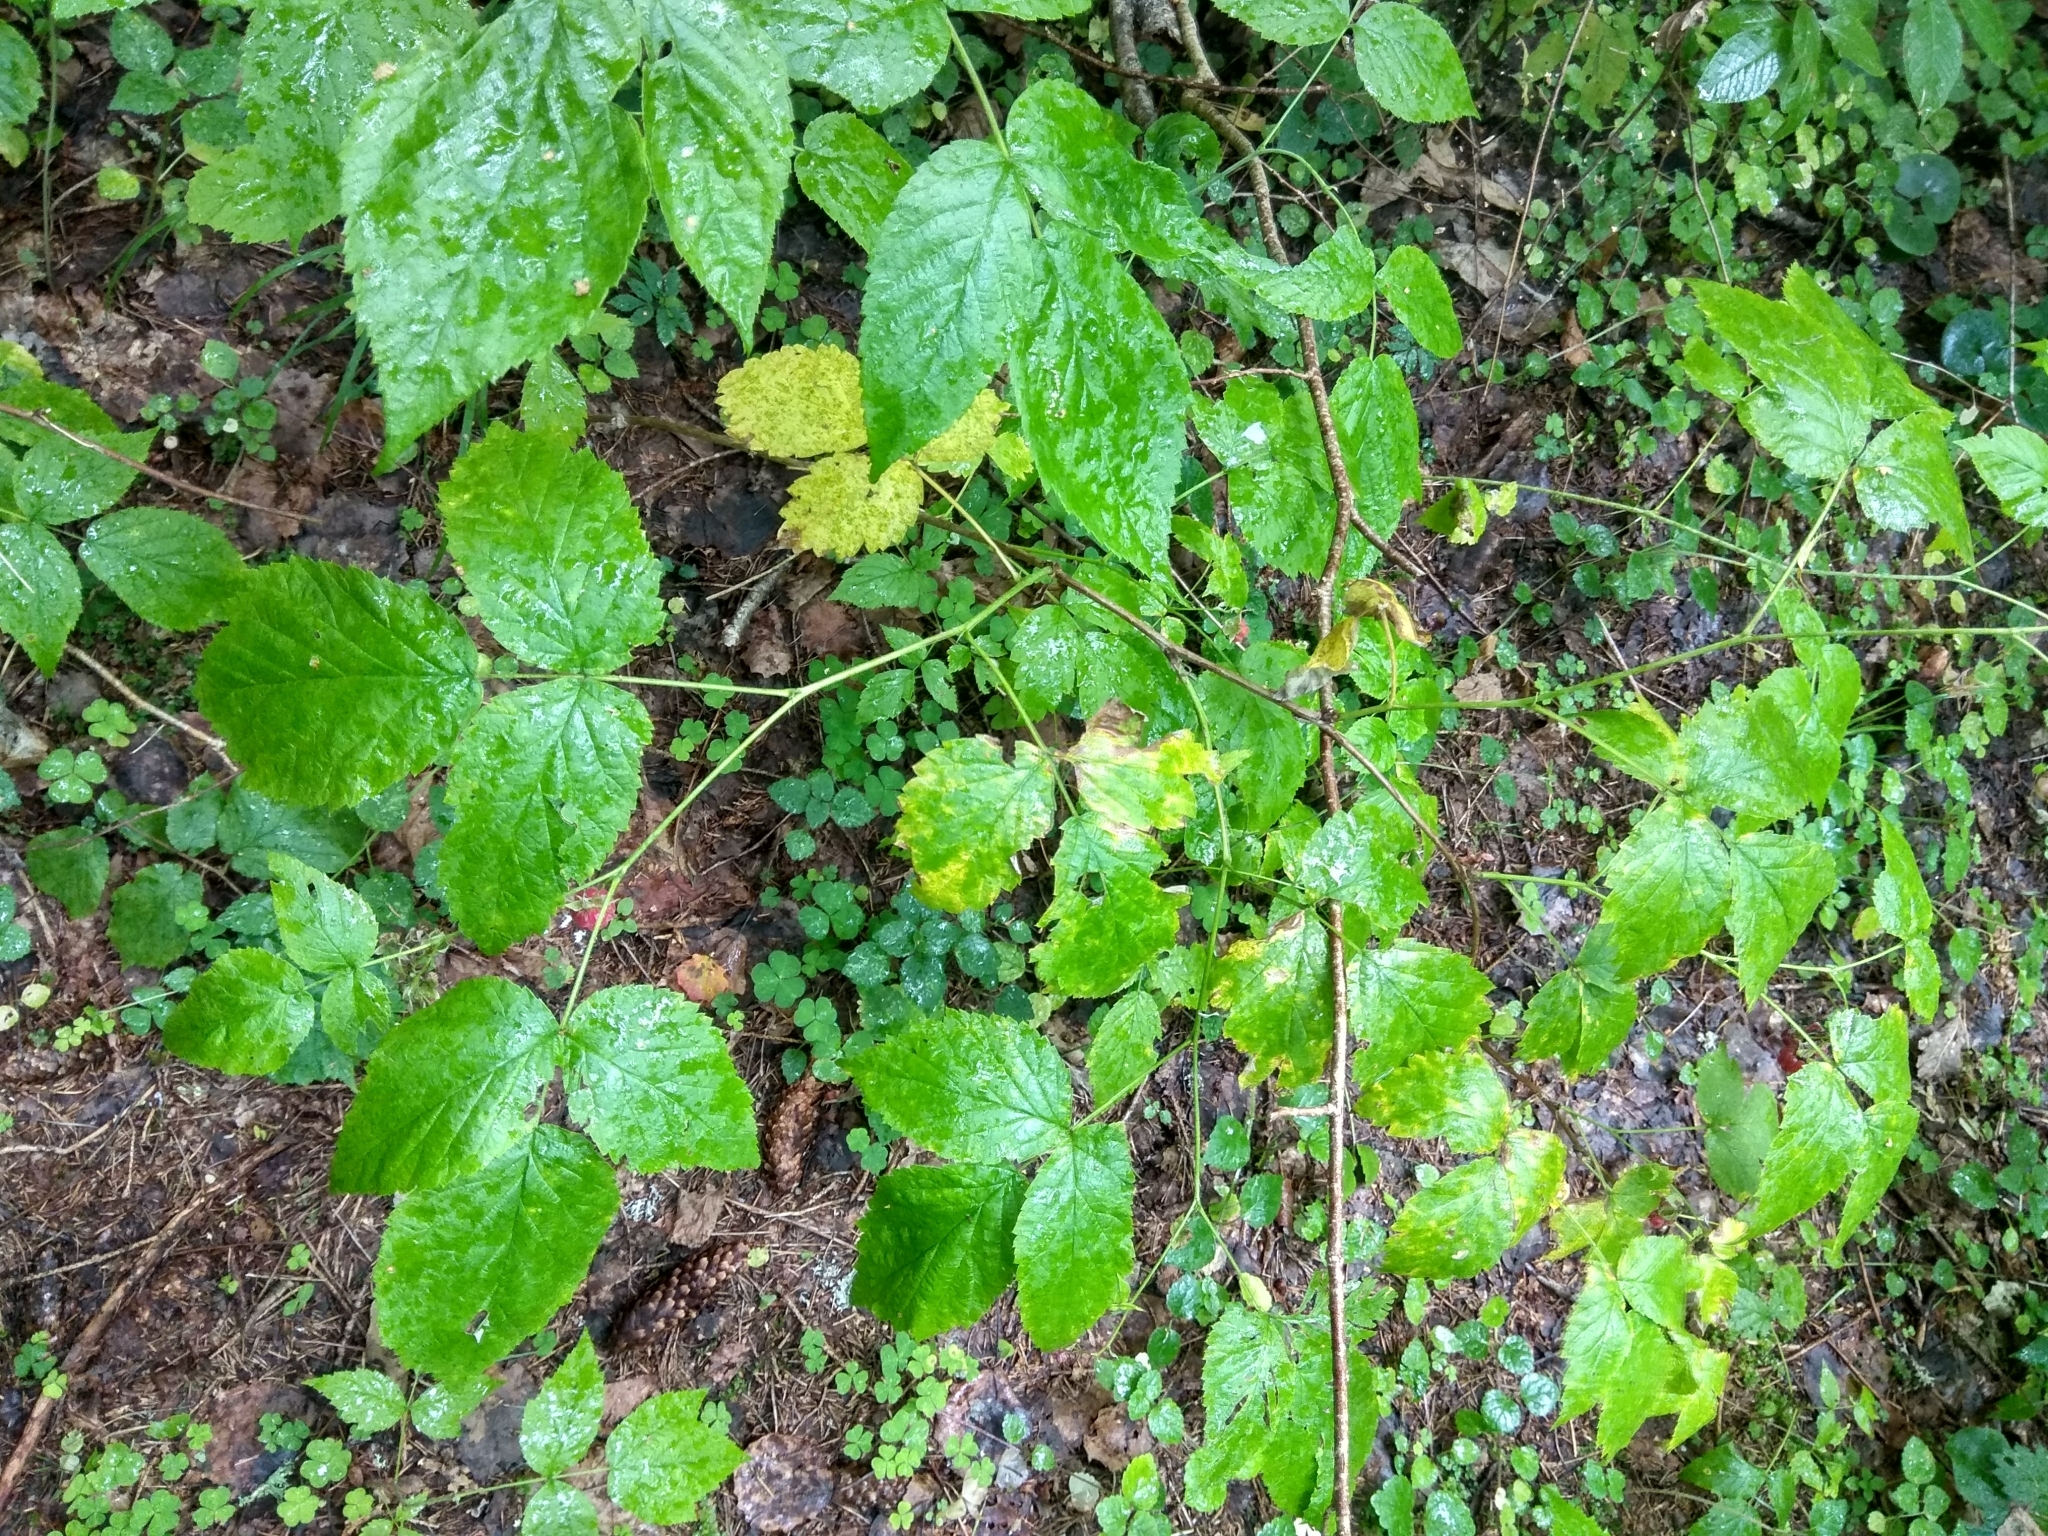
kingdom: Plantae
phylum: Tracheophyta
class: Magnoliopsida
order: Rosales
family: Rosaceae
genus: Rubus
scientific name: Rubus idaeus
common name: Raspberry
